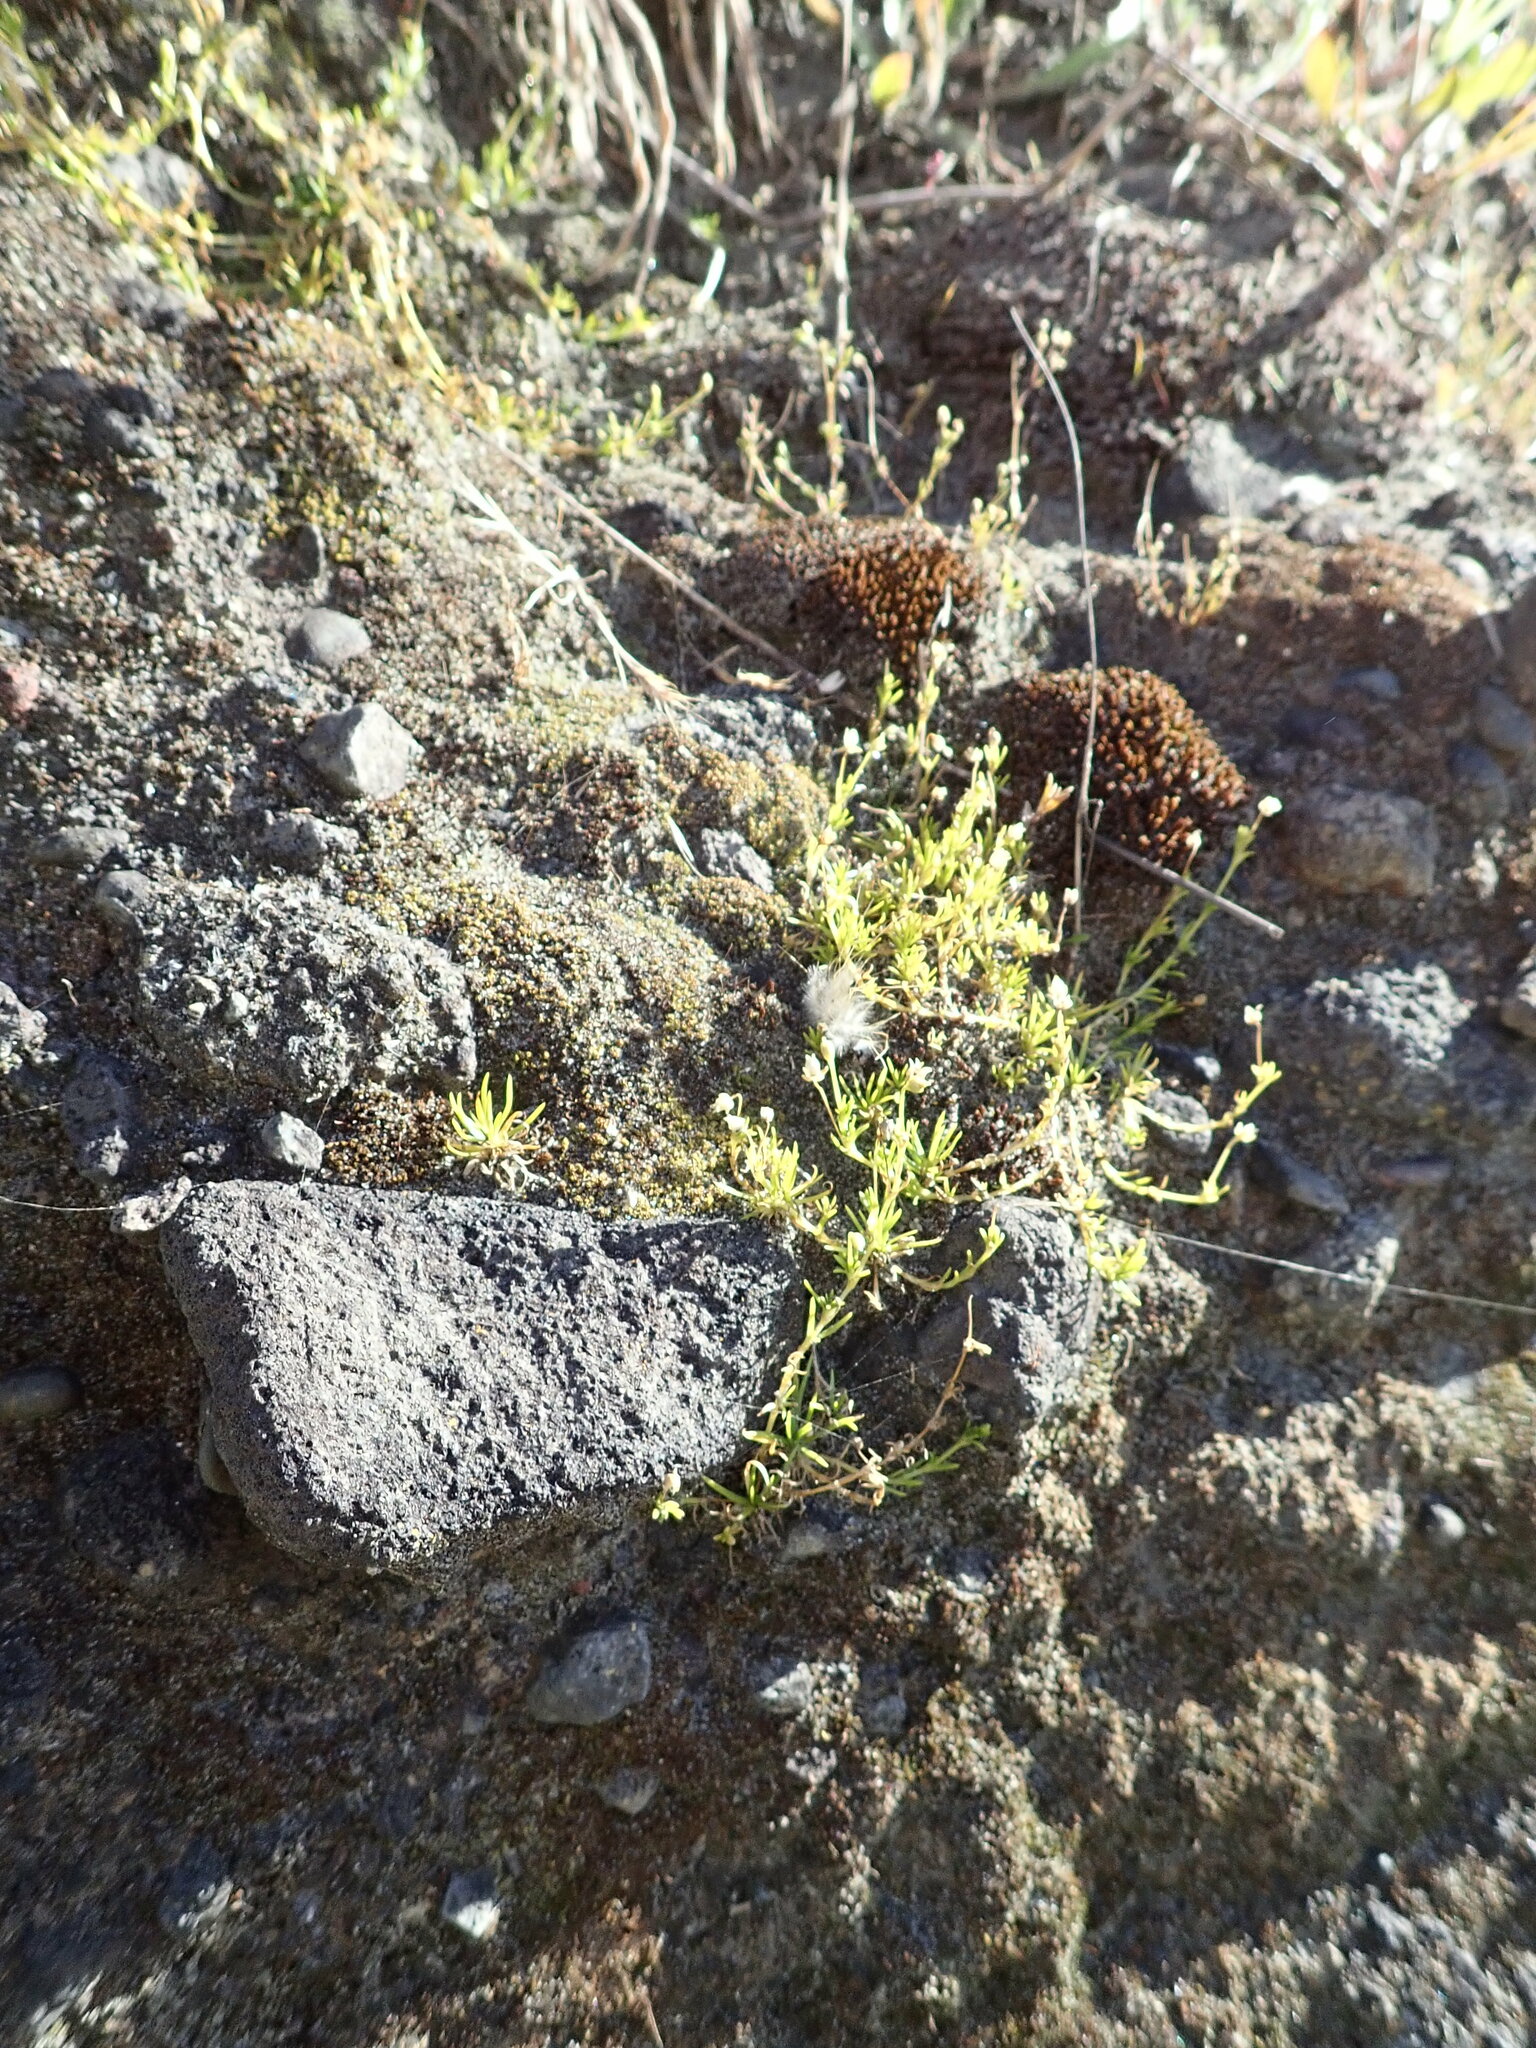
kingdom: Plantae
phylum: Tracheophyta
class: Magnoliopsida
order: Caryophyllales
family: Caryophyllaceae
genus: Sagina
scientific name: Sagina procumbens
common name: Procumbent pearlwort
